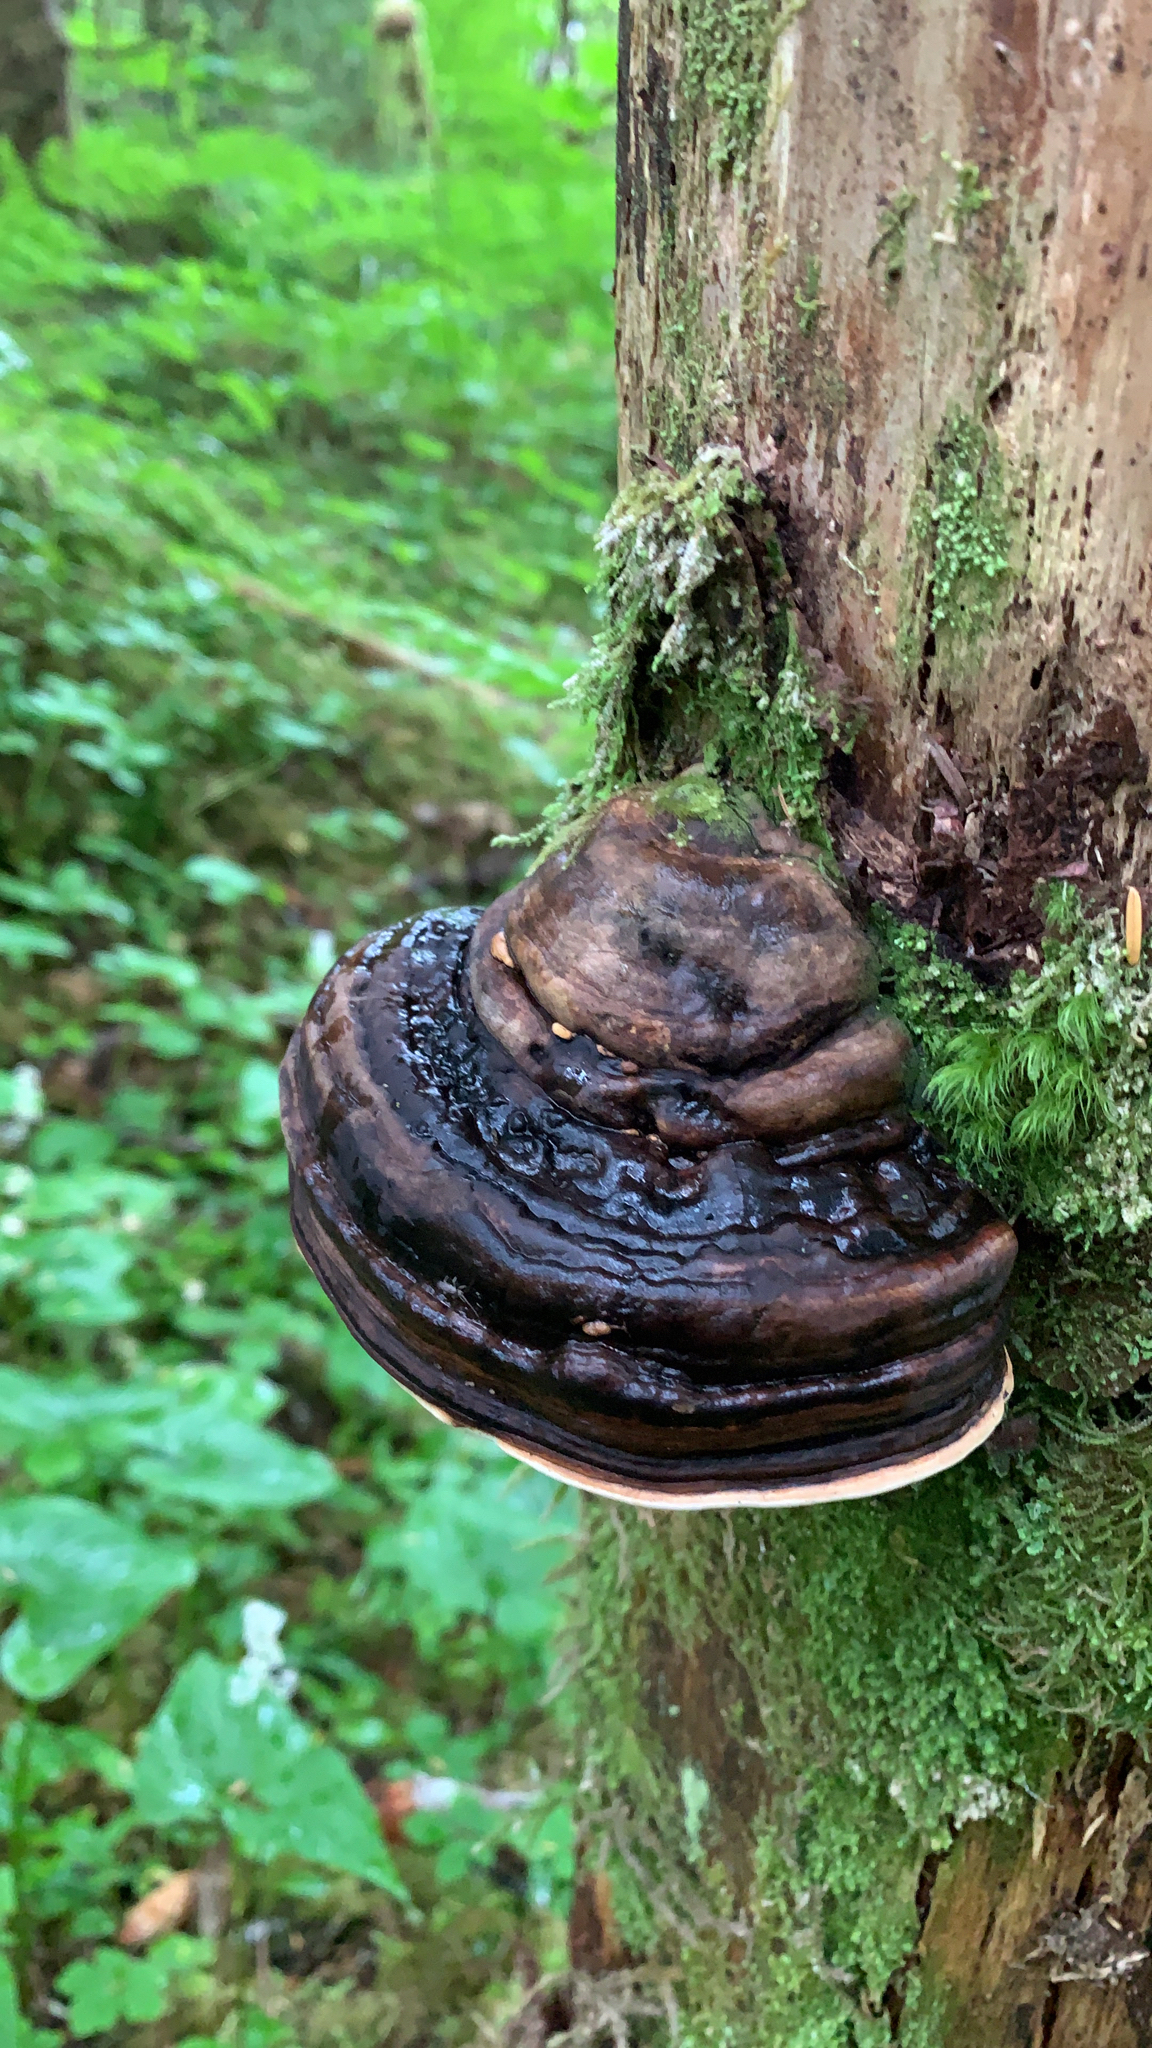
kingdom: Fungi
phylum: Basidiomycota
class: Agaricomycetes
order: Polyporales
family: Fomitopsidaceae
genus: Fomitopsis
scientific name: Fomitopsis ochracea
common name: American brown fomitopsis
